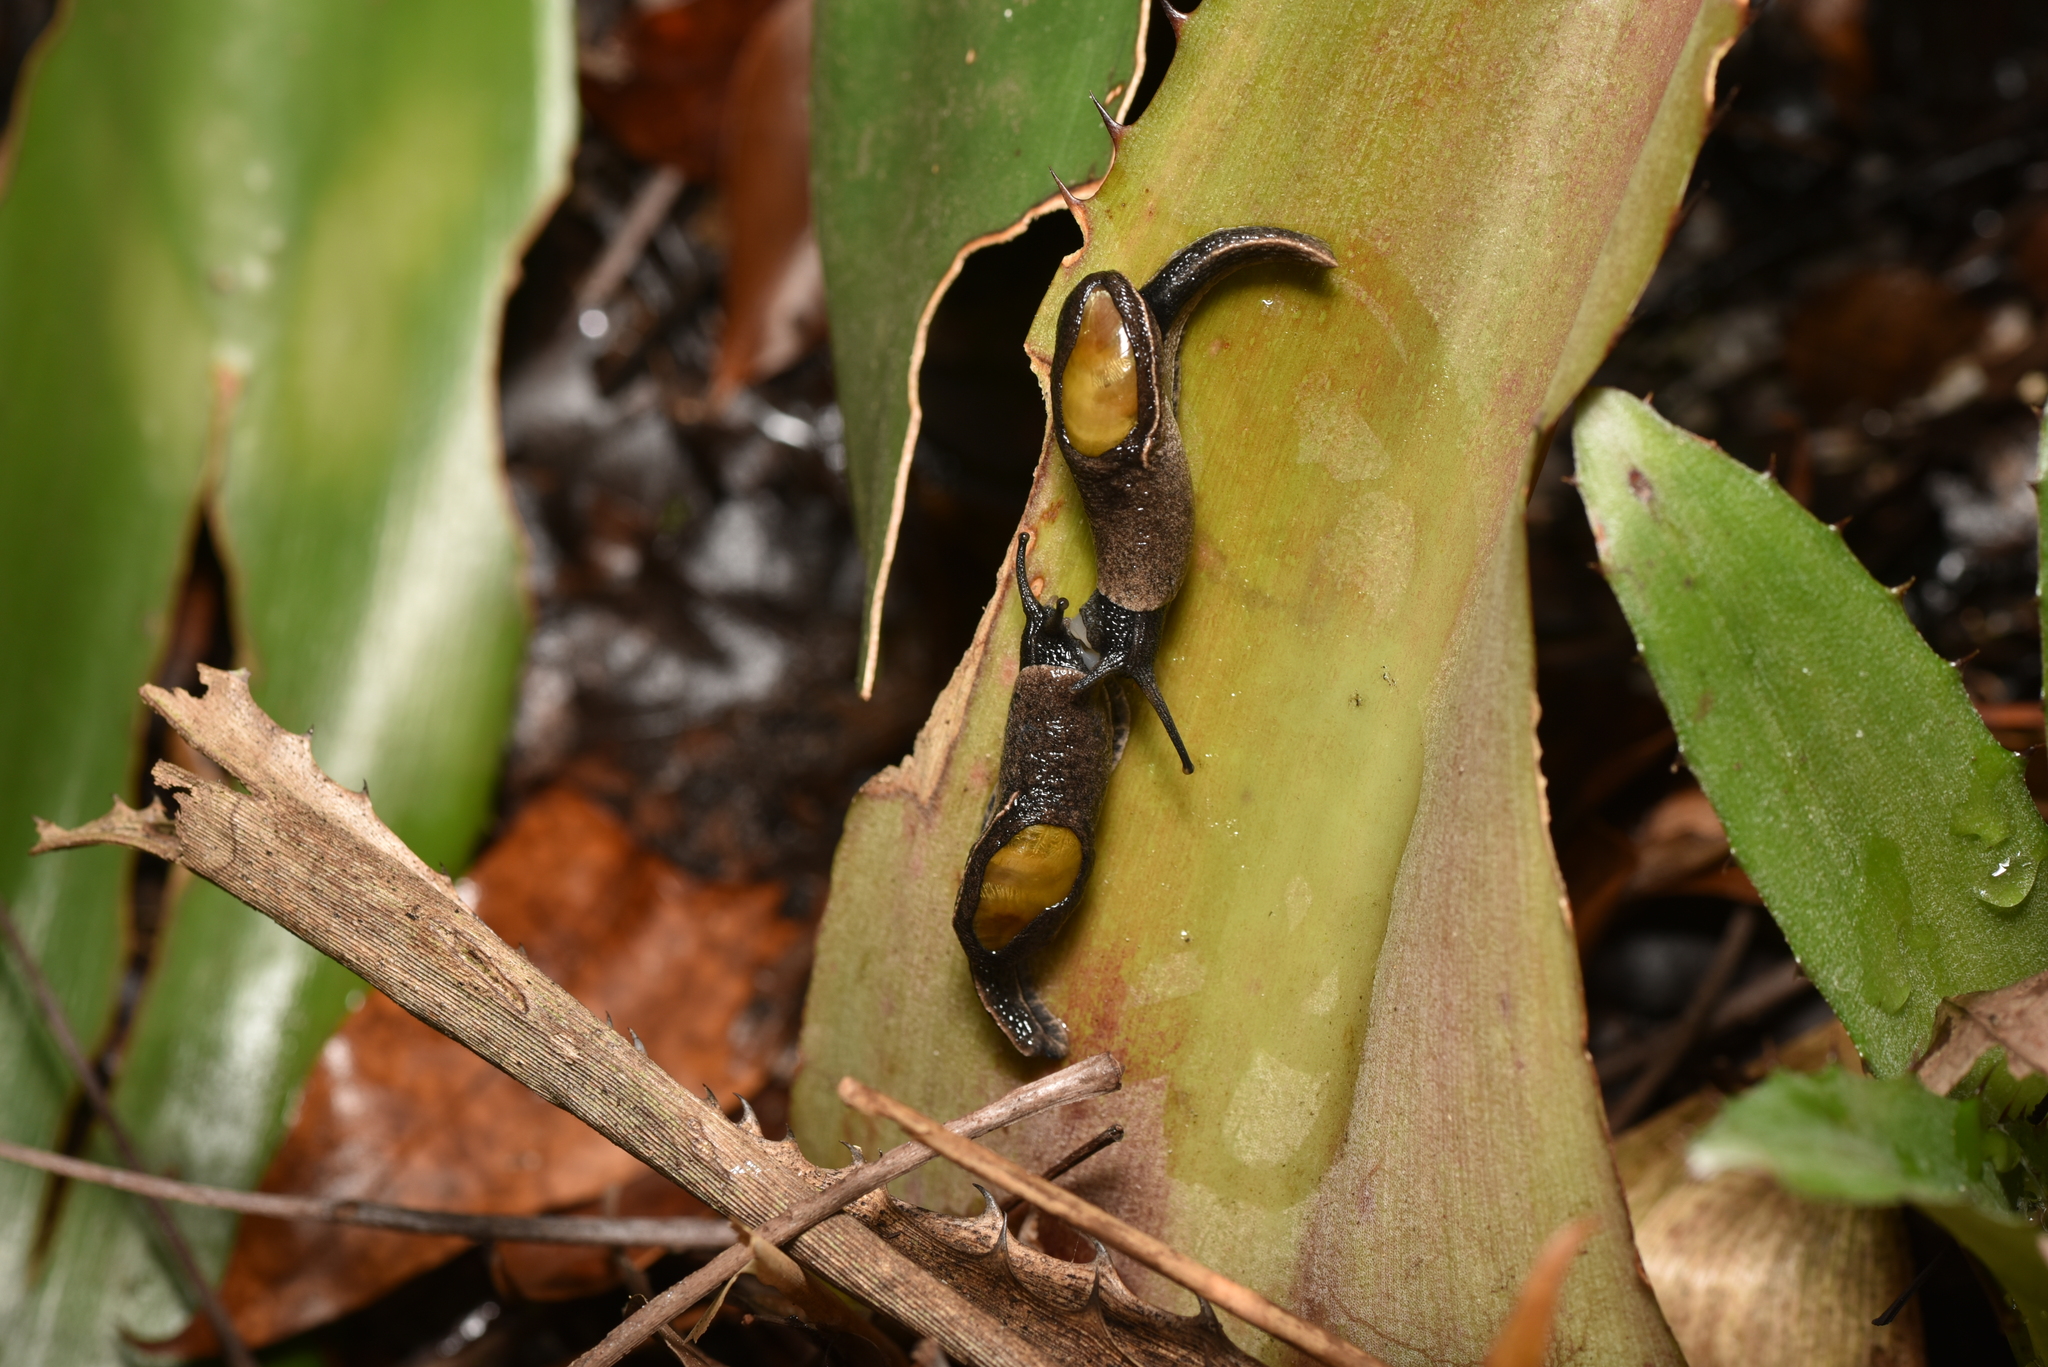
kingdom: Animalia
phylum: Mollusca
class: Gastropoda
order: Stylommatophora
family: Ariophantidae
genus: Parmarion
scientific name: Parmarion martensi
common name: Semi-slug
